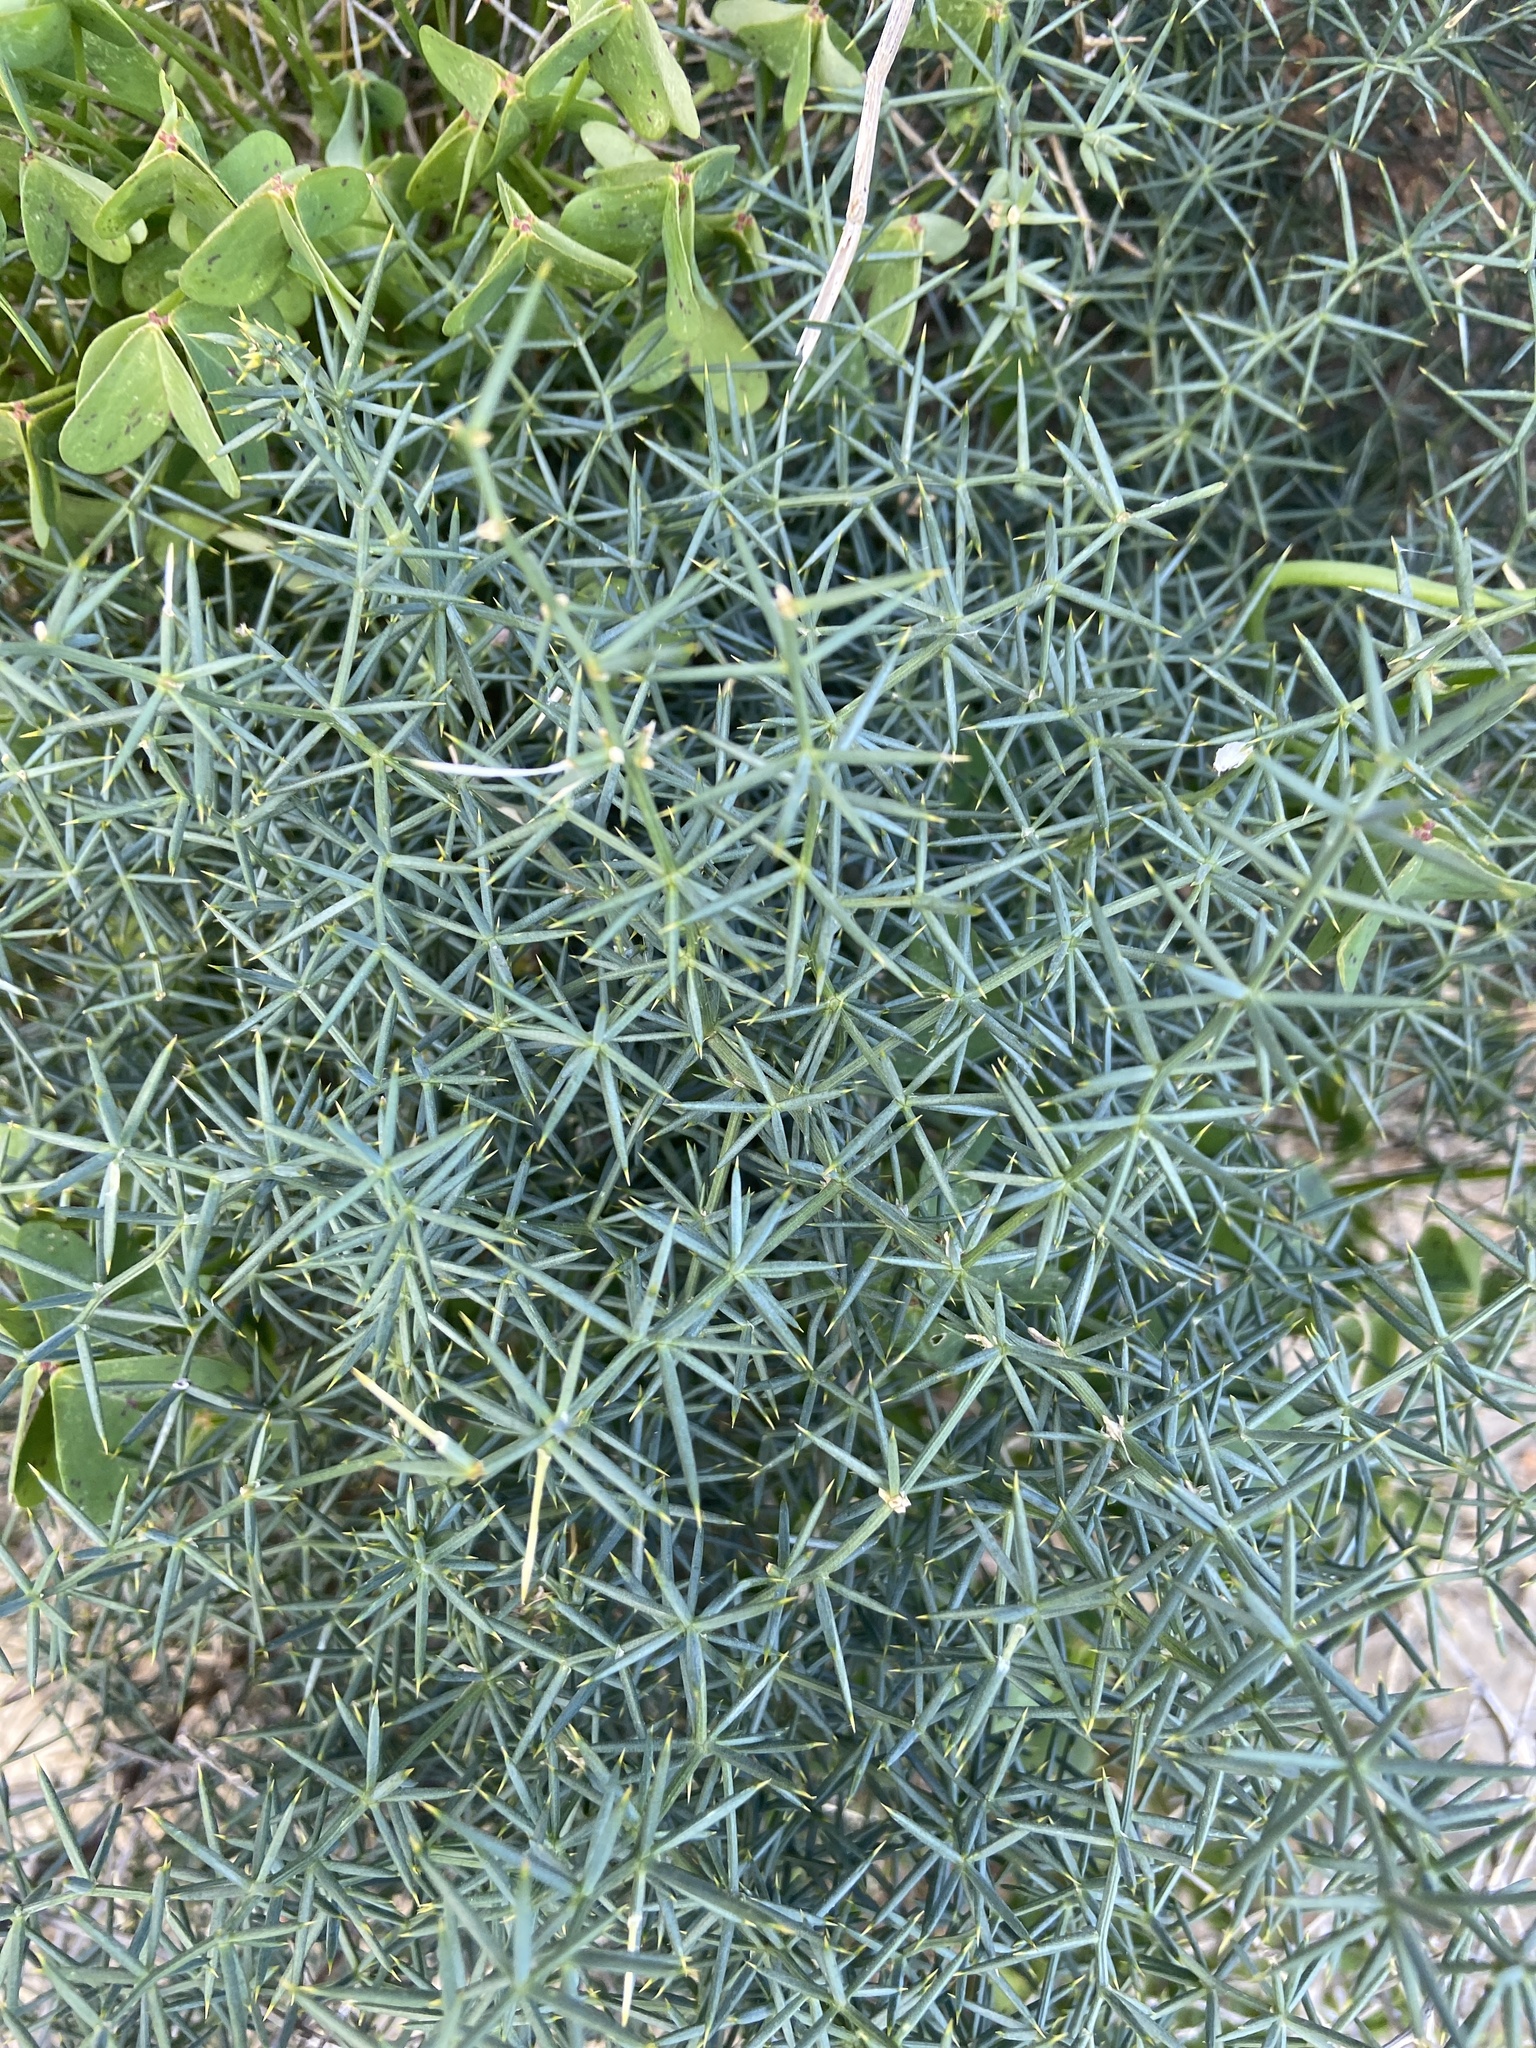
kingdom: Plantae
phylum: Tracheophyta
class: Liliopsida
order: Asparagales
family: Asparagaceae
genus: Asparagus
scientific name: Asparagus aphyllus
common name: Mediterranean asparagus
